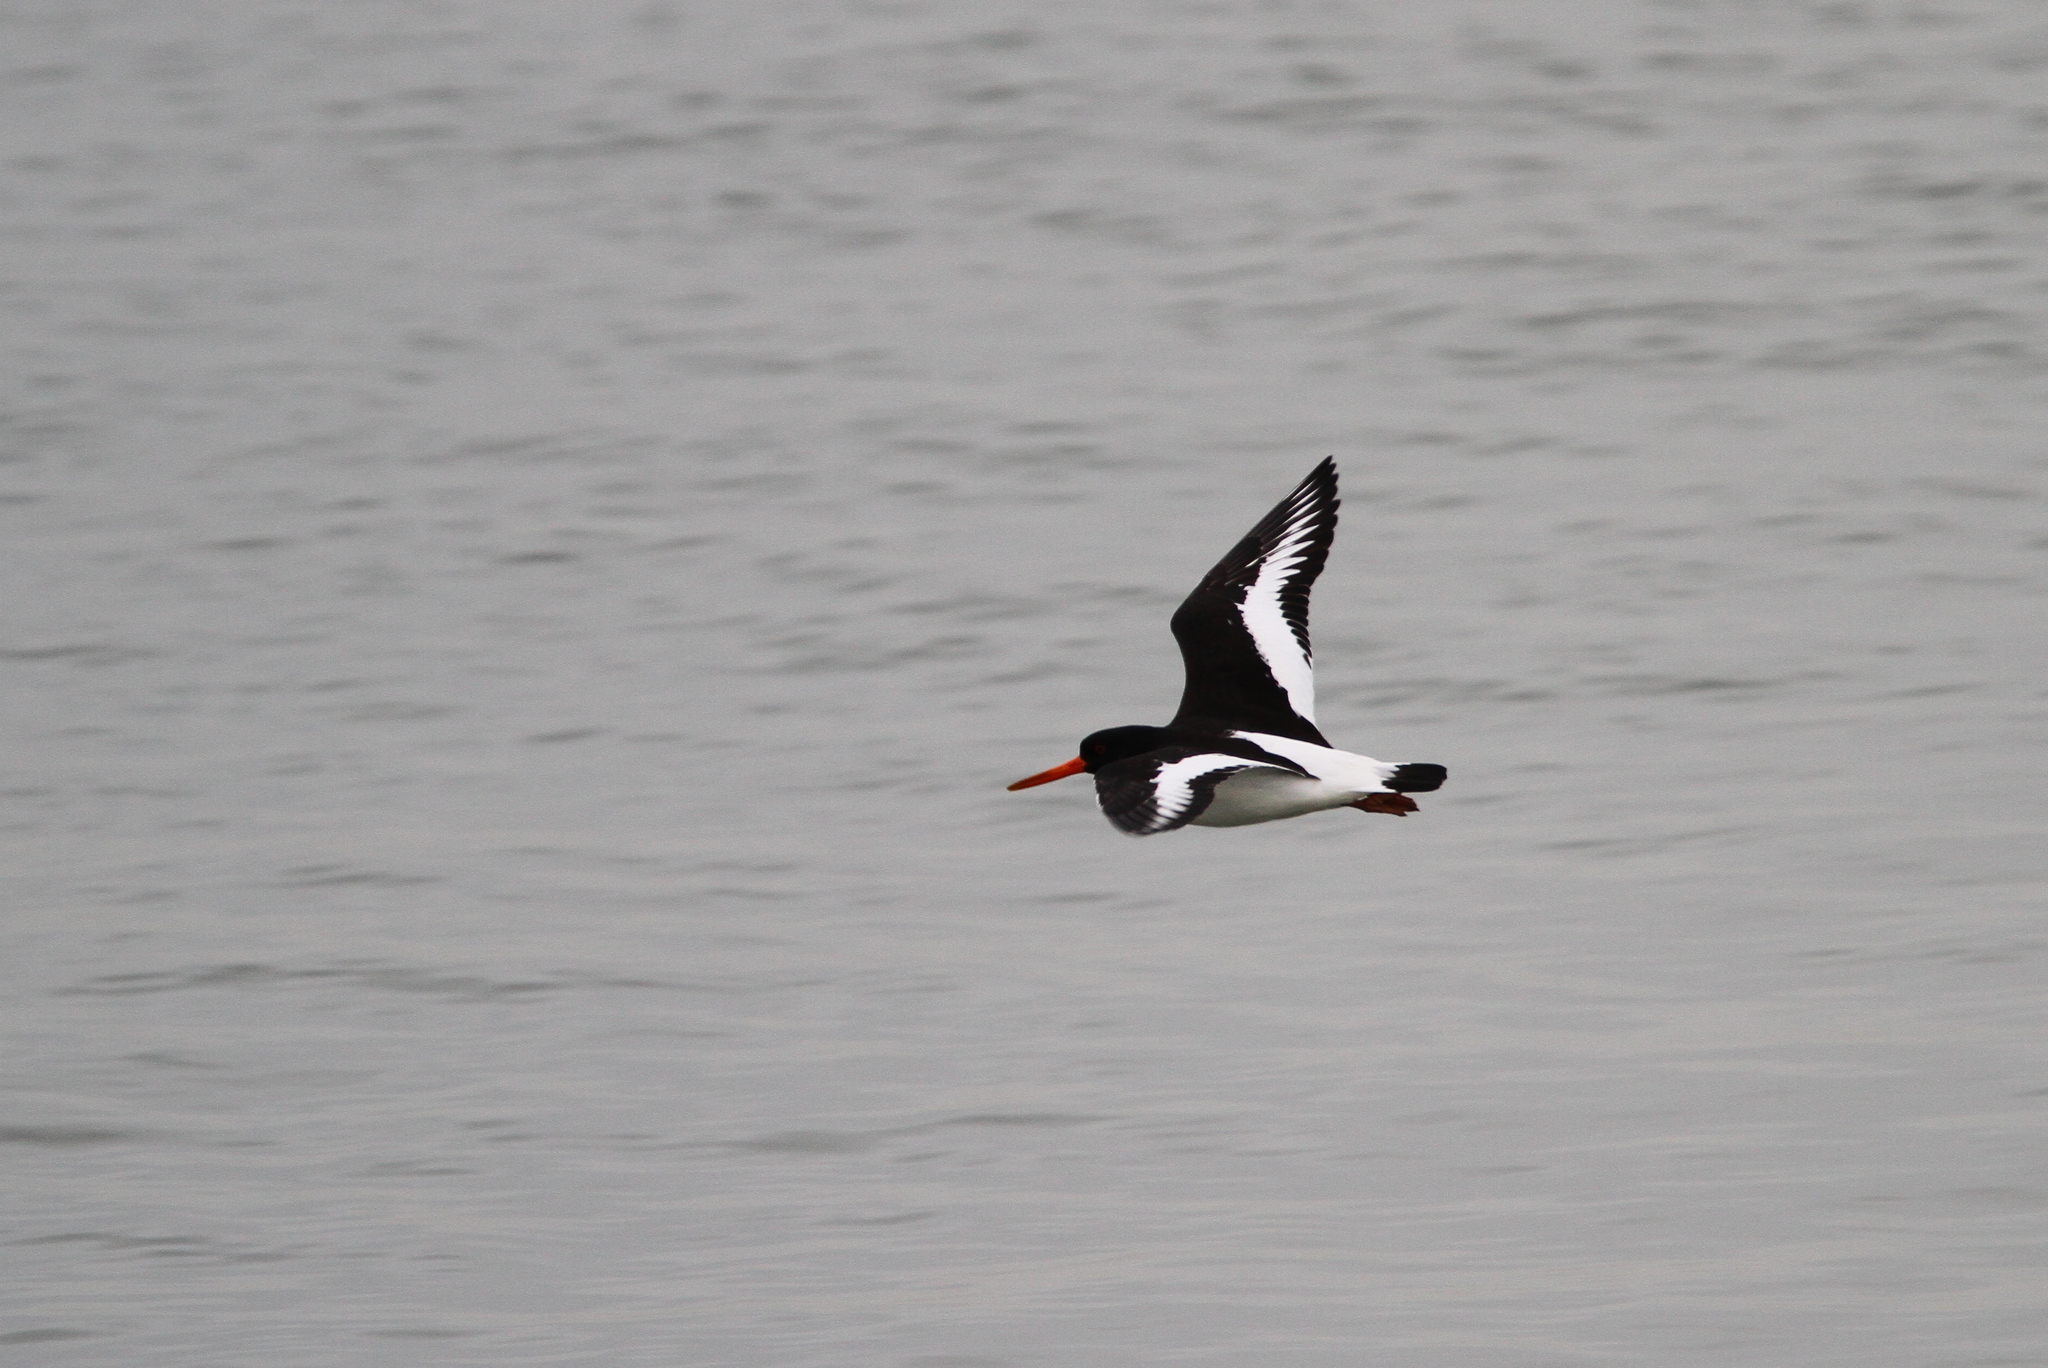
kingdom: Animalia
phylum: Chordata
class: Aves
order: Charadriiformes
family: Haematopodidae
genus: Haematopus
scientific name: Haematopus ostralegus
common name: Eurasian oystercatcher
